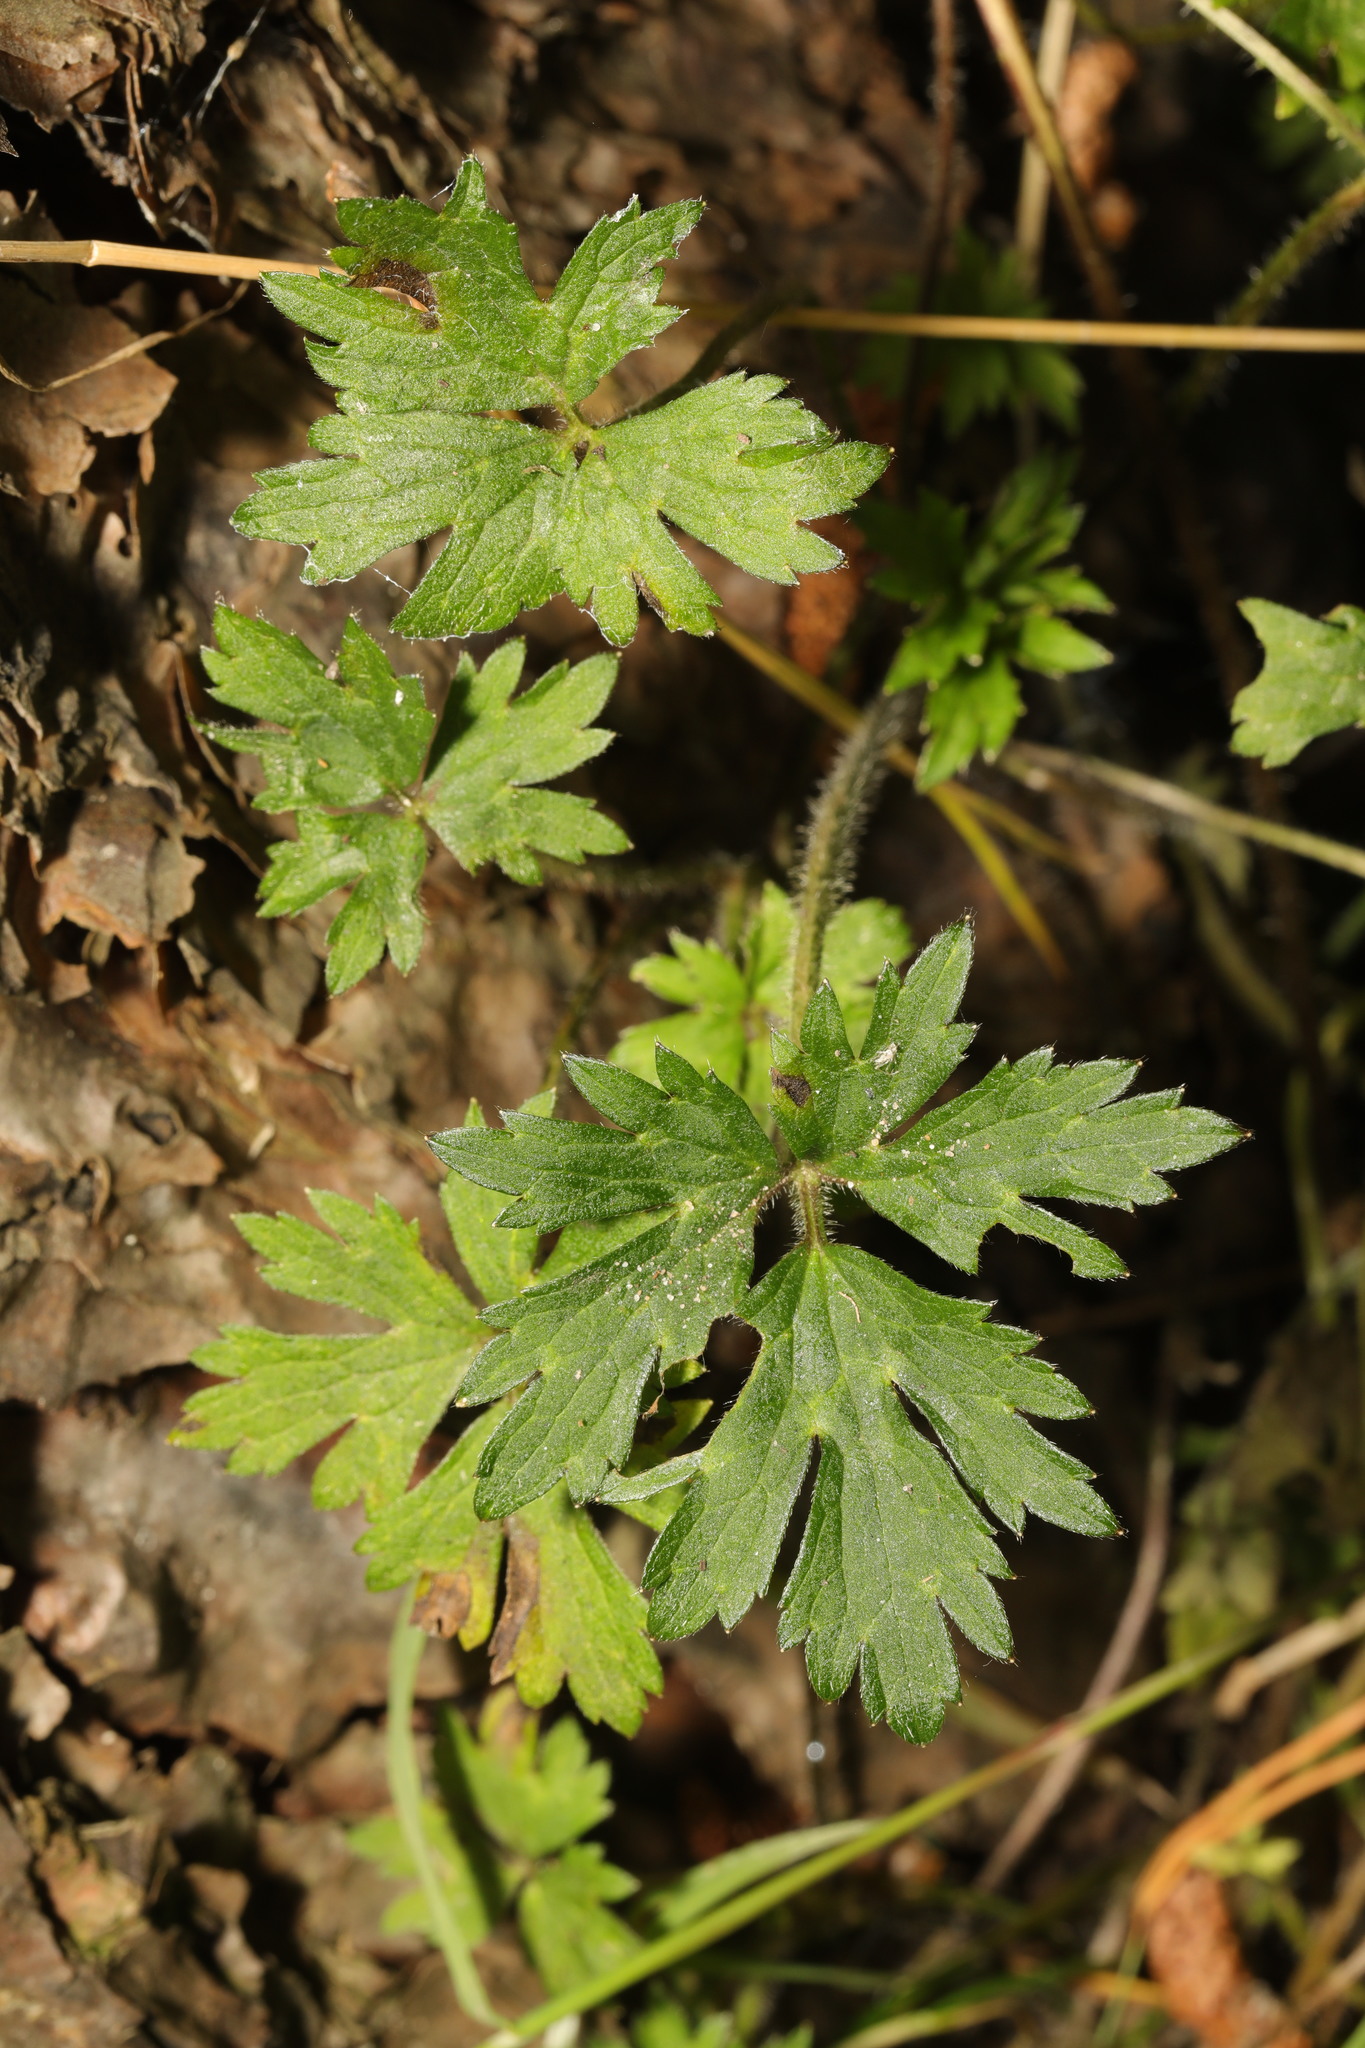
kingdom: Plantae
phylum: Tracheophyta
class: Magnoliopsida
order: Ranunculales
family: Ranunculaceae
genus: Ranunculus
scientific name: Ranunculus repens
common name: Creeping buttercup
